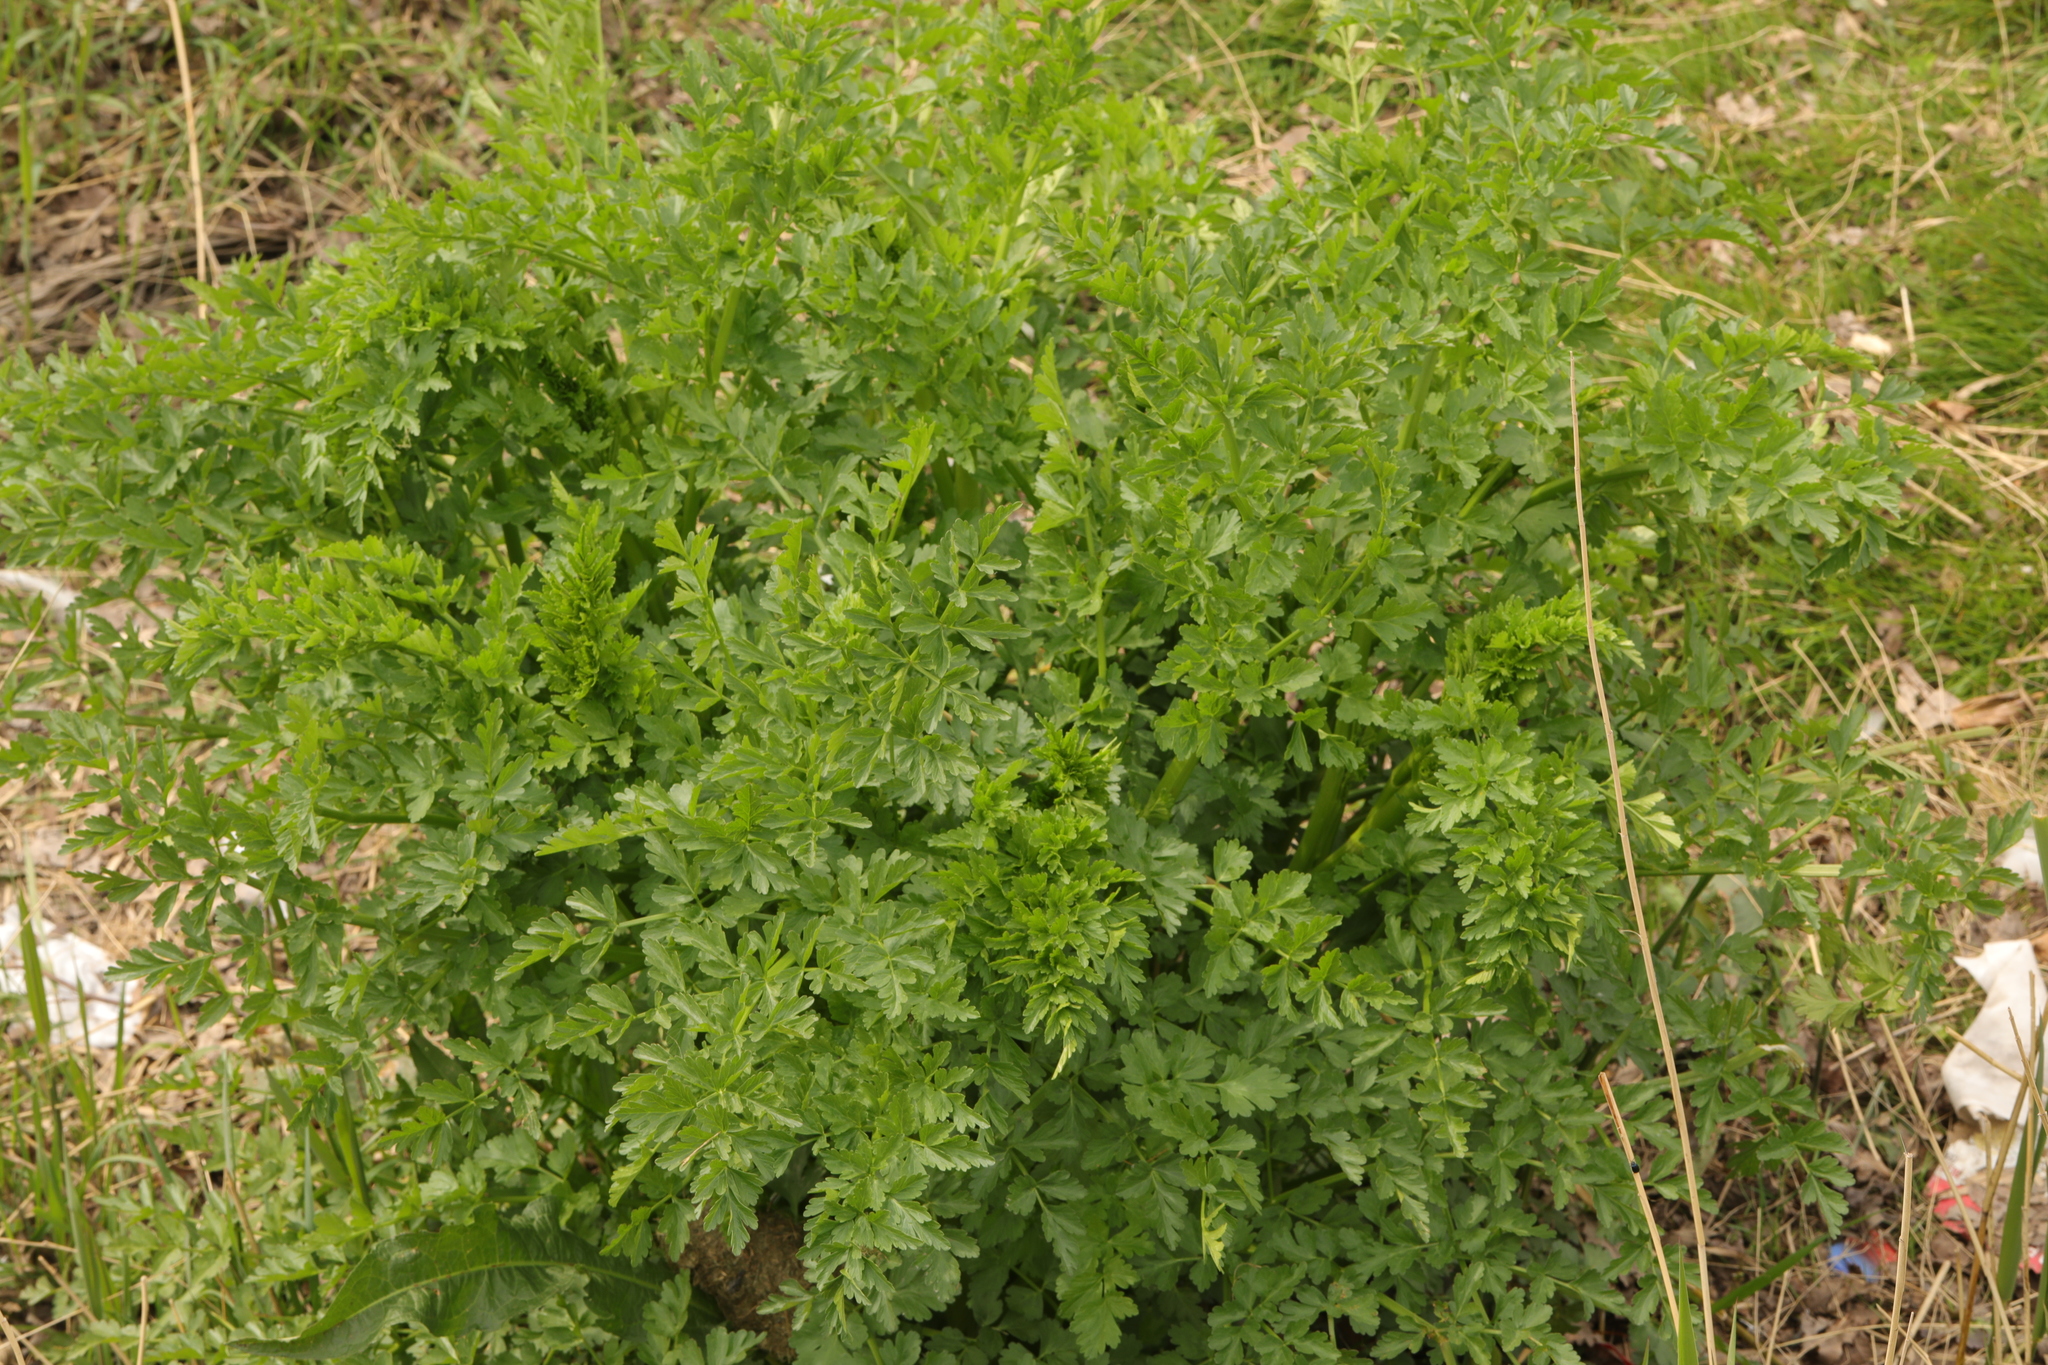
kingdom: Plantae
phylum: Tracheophyta
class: Magnoliopsida
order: Apiales
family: Apiaceae
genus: Oenanthe
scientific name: Oenanthe crocata
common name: Hemlock water-dropwort
